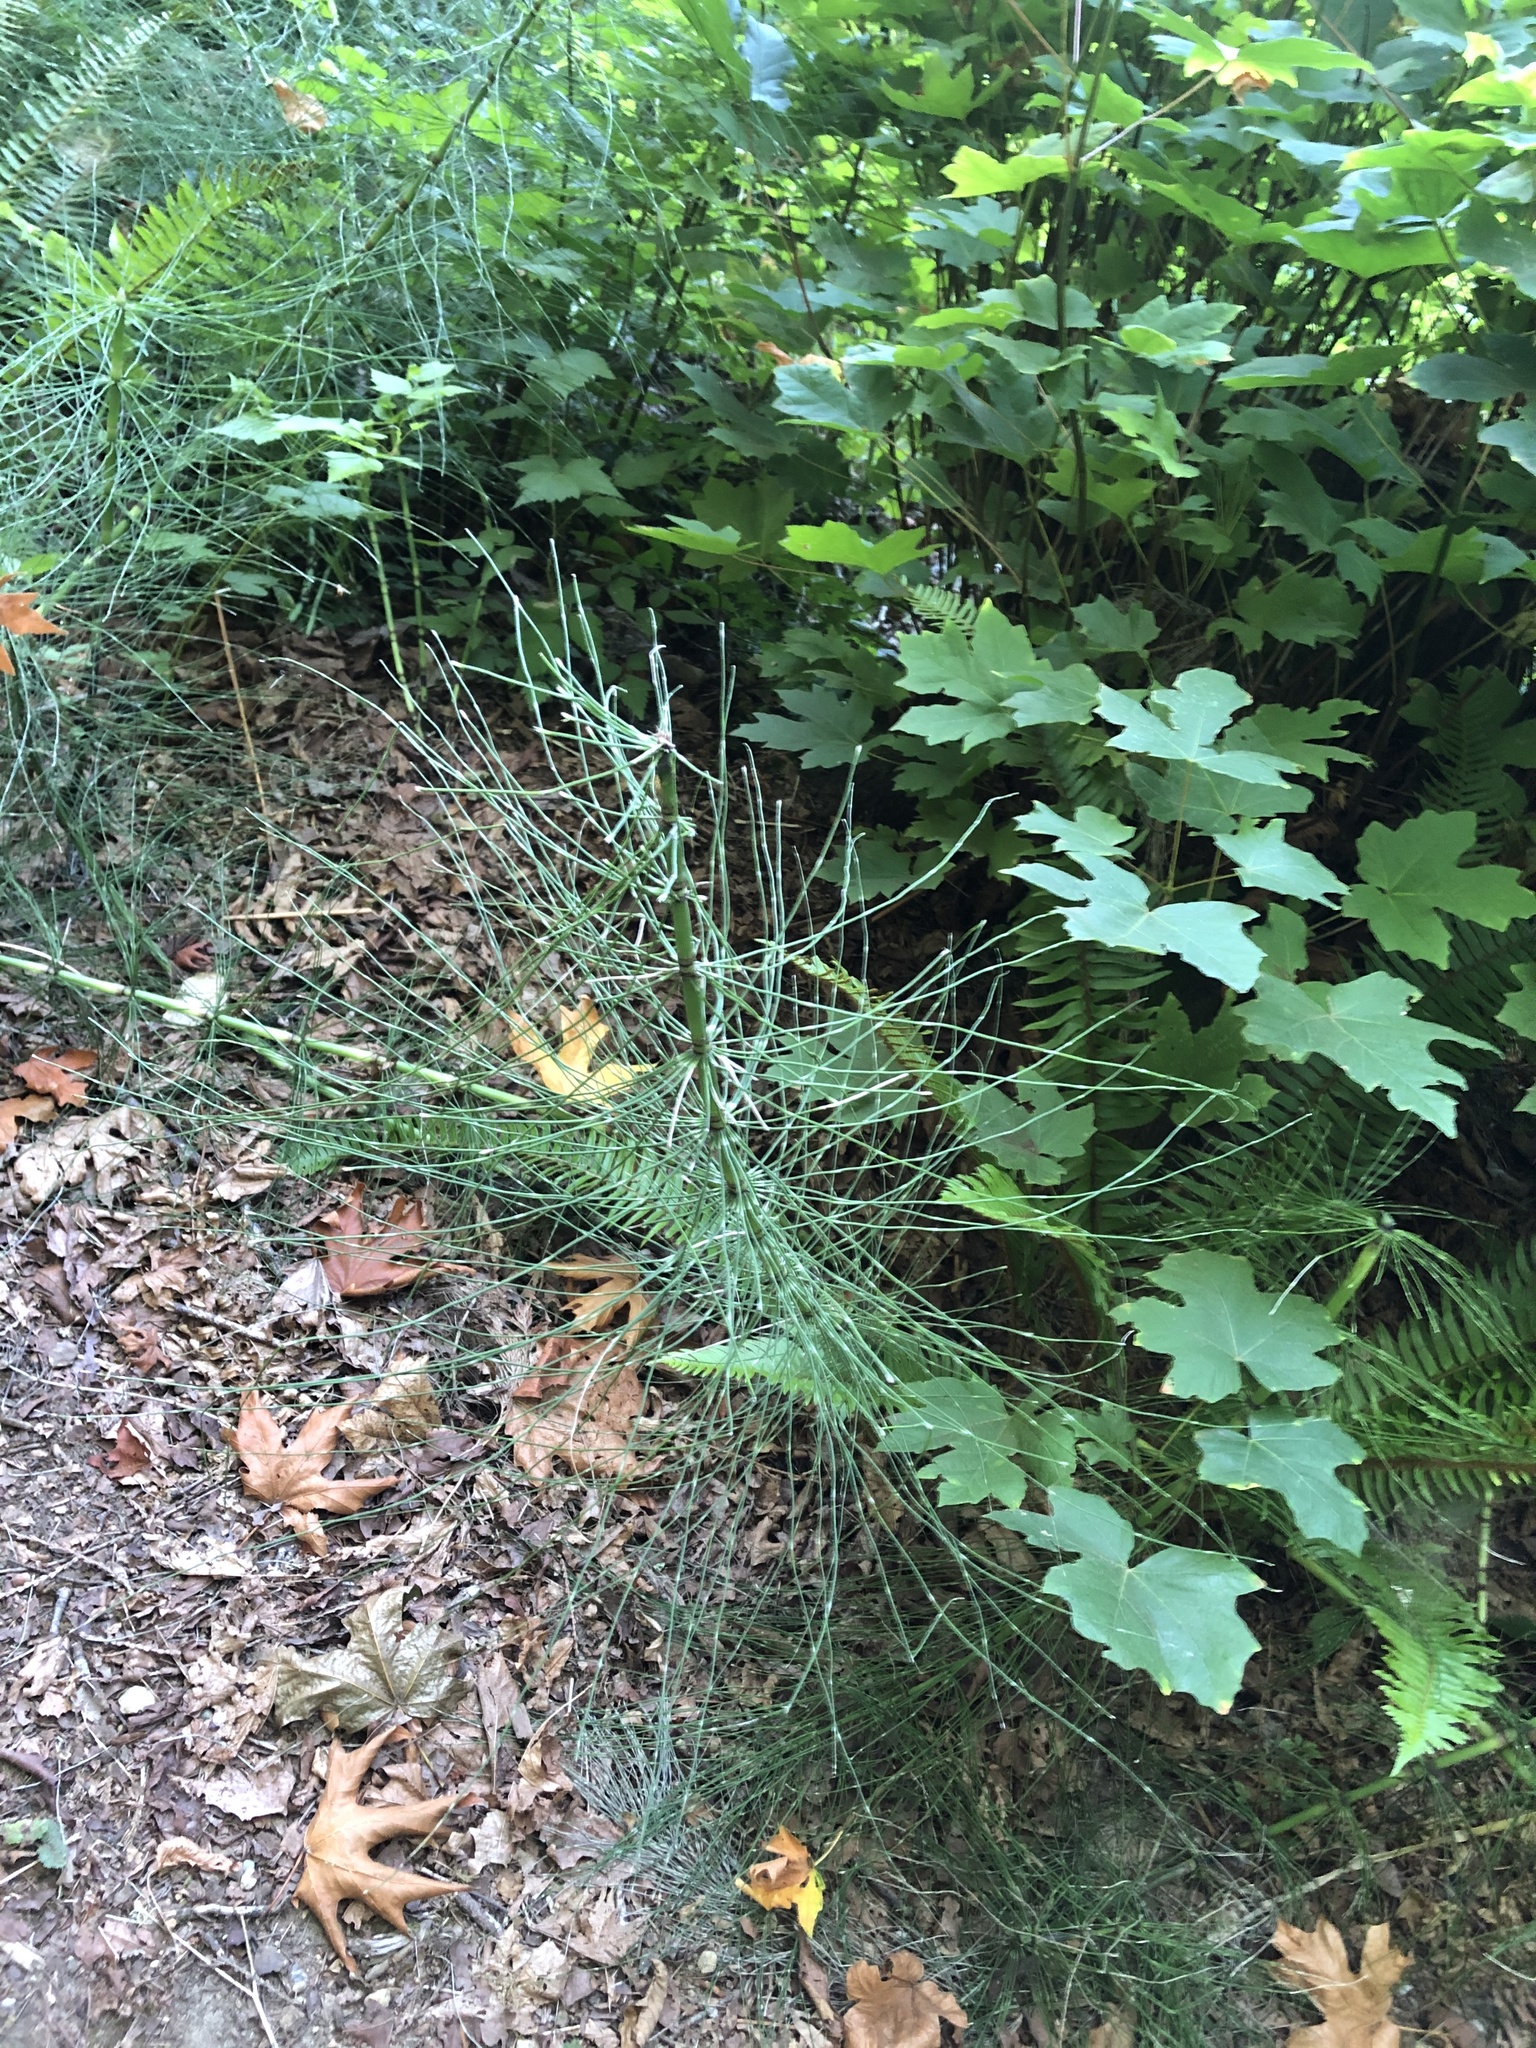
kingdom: Plantae
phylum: Tracheophyta
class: Polypodiopsida
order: Equisetales
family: Equisetaceae
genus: Equisetum
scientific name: Equisetum braunii
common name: Braun's horsetail
